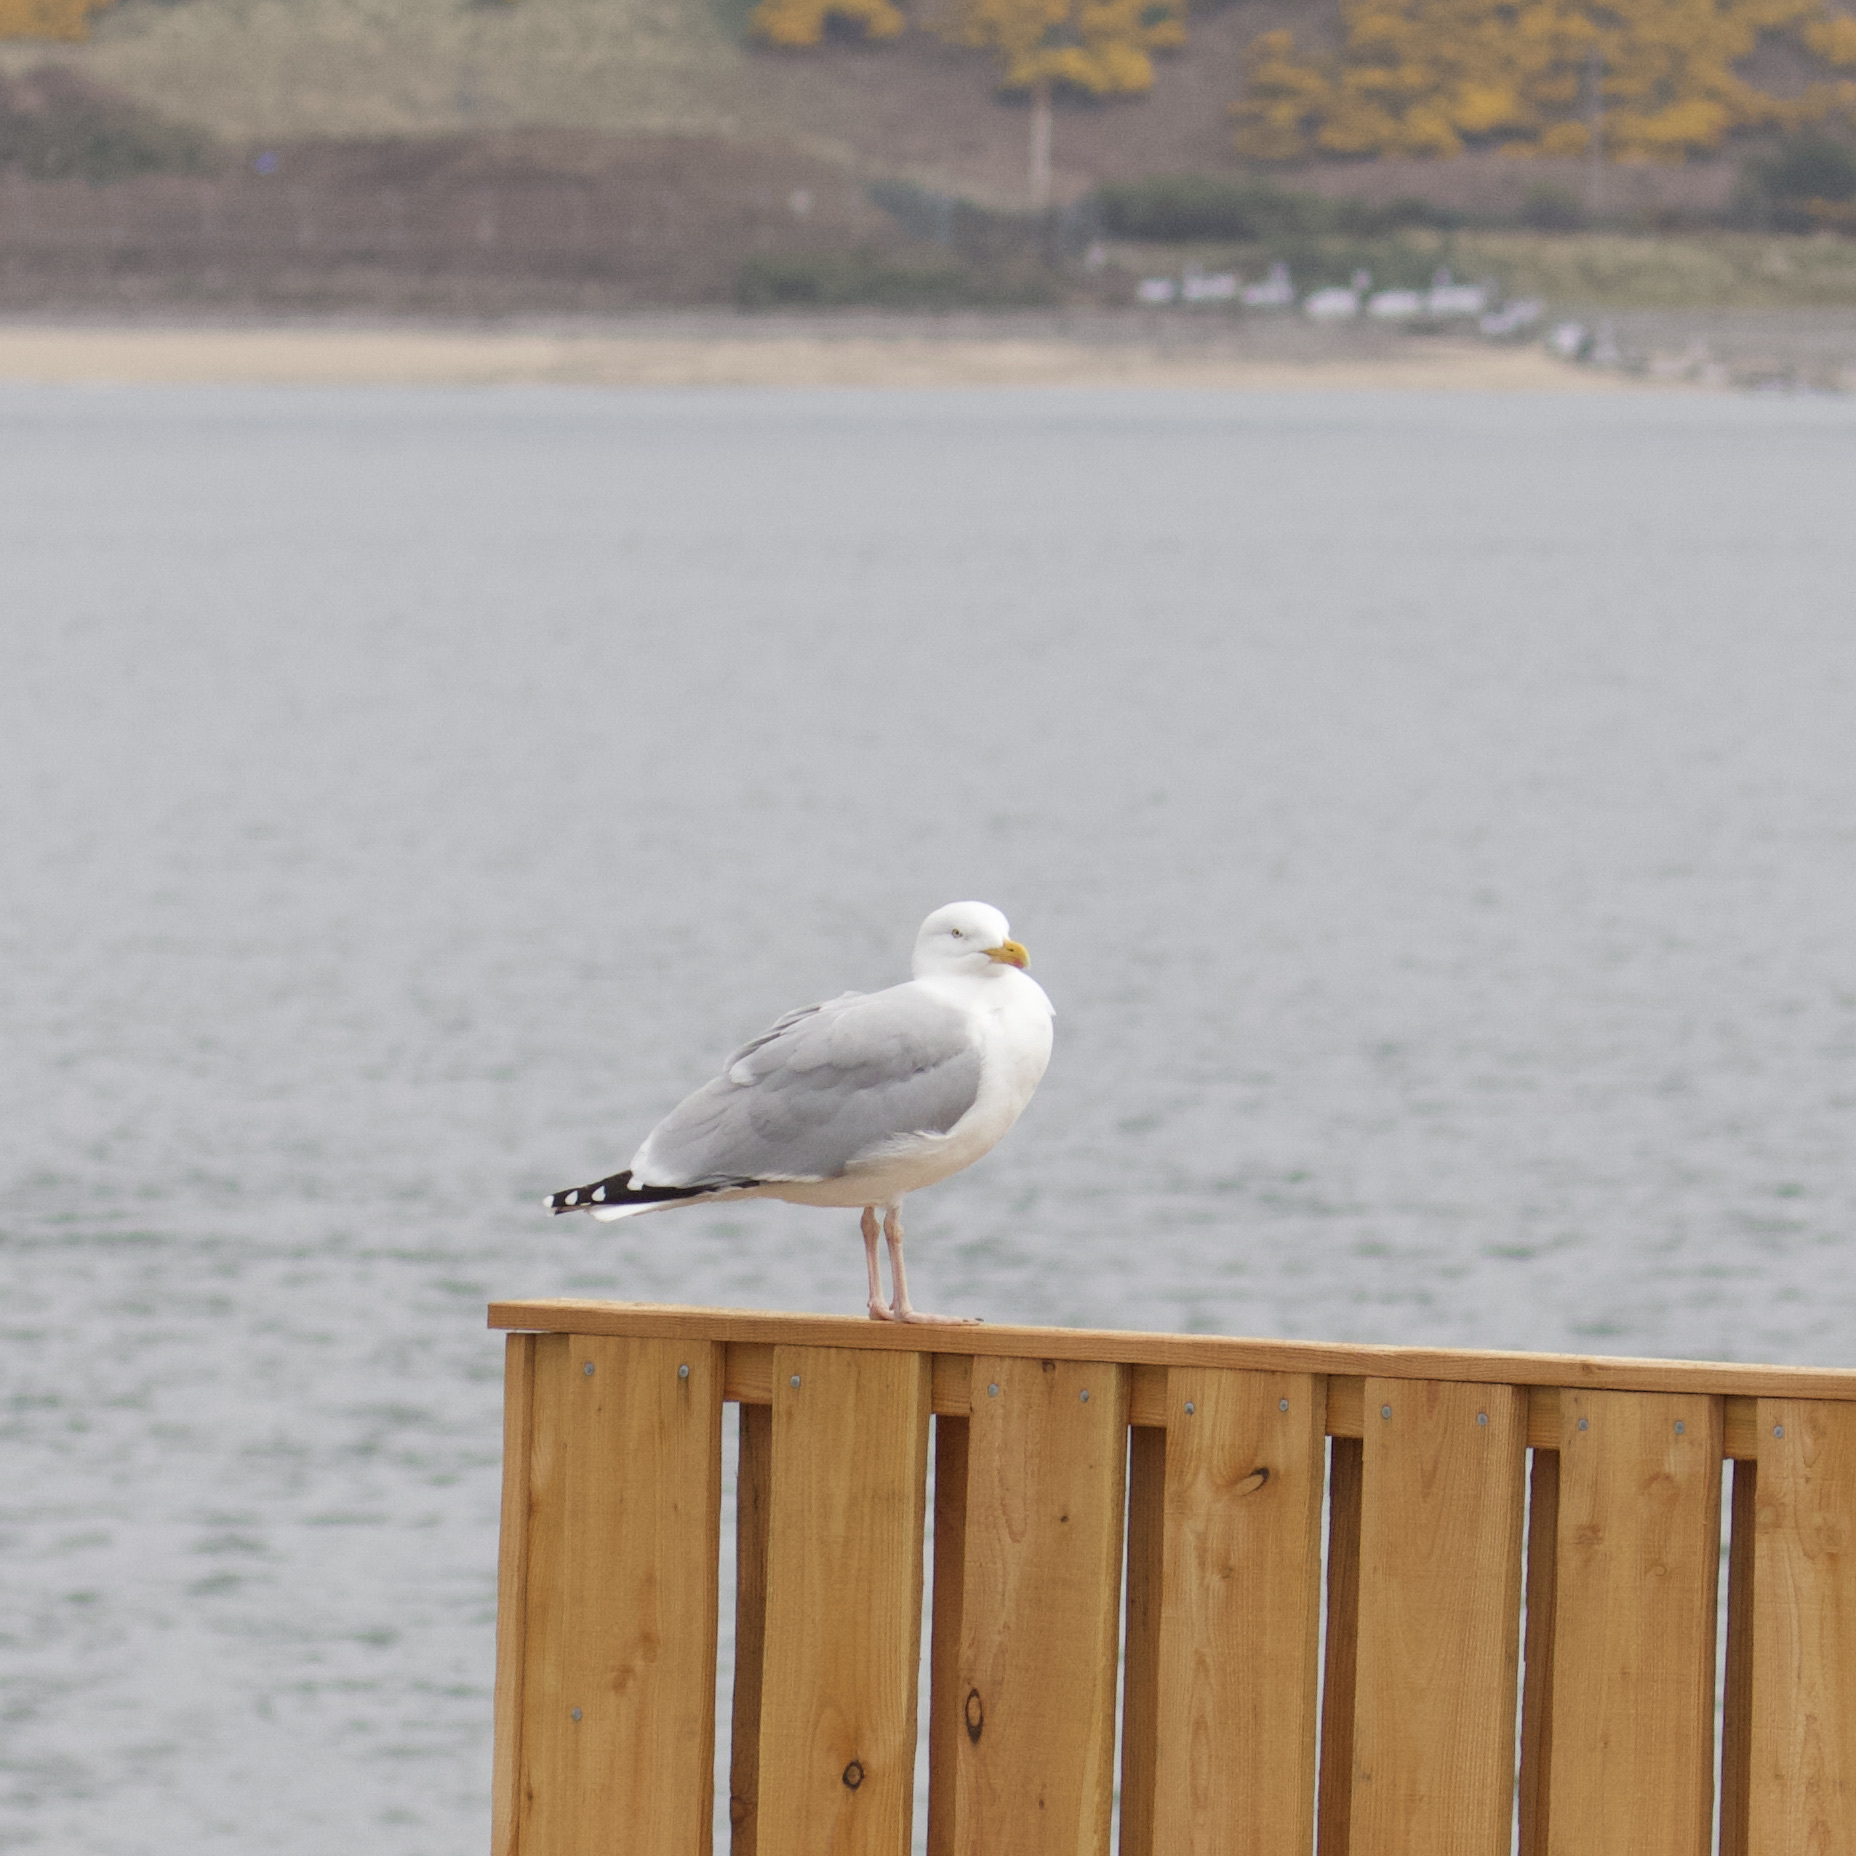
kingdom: Animalia
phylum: Chordata
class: Aves
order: Charadriiformes
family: Laridae
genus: Larus
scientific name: Larus argentatus
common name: Herring gull
